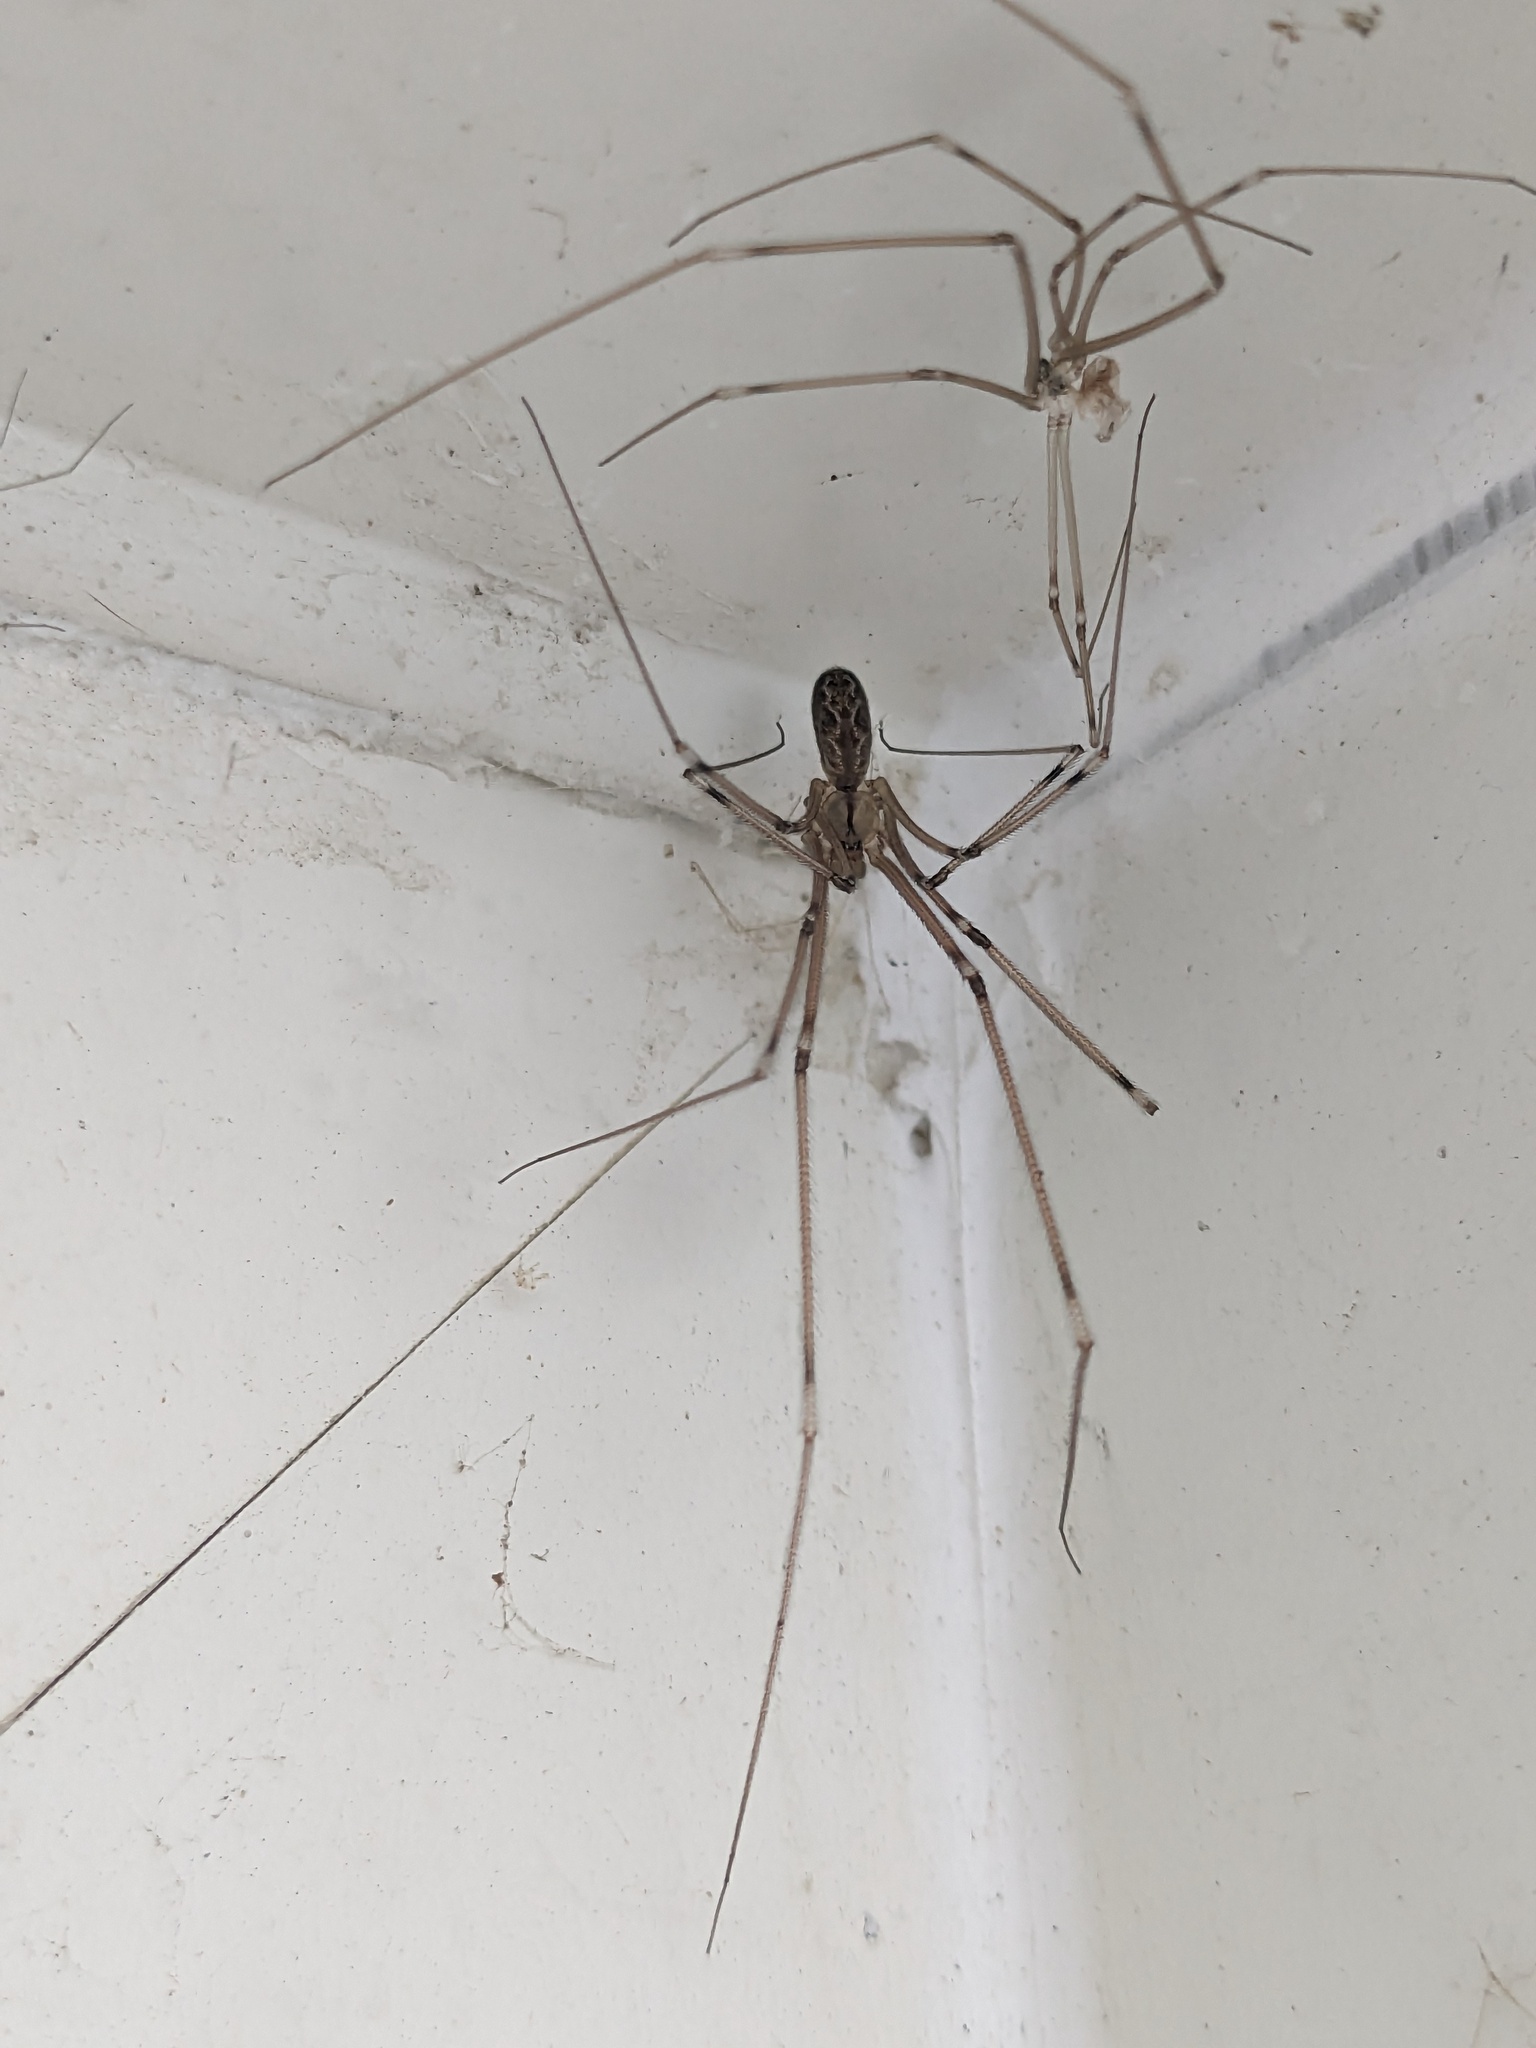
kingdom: Animalia
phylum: Arthropoda
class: Arachnida
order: Araneae
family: Pholcidae
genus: Holocnemus
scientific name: Holocnemus pluchei
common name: Marbled cellar spider
